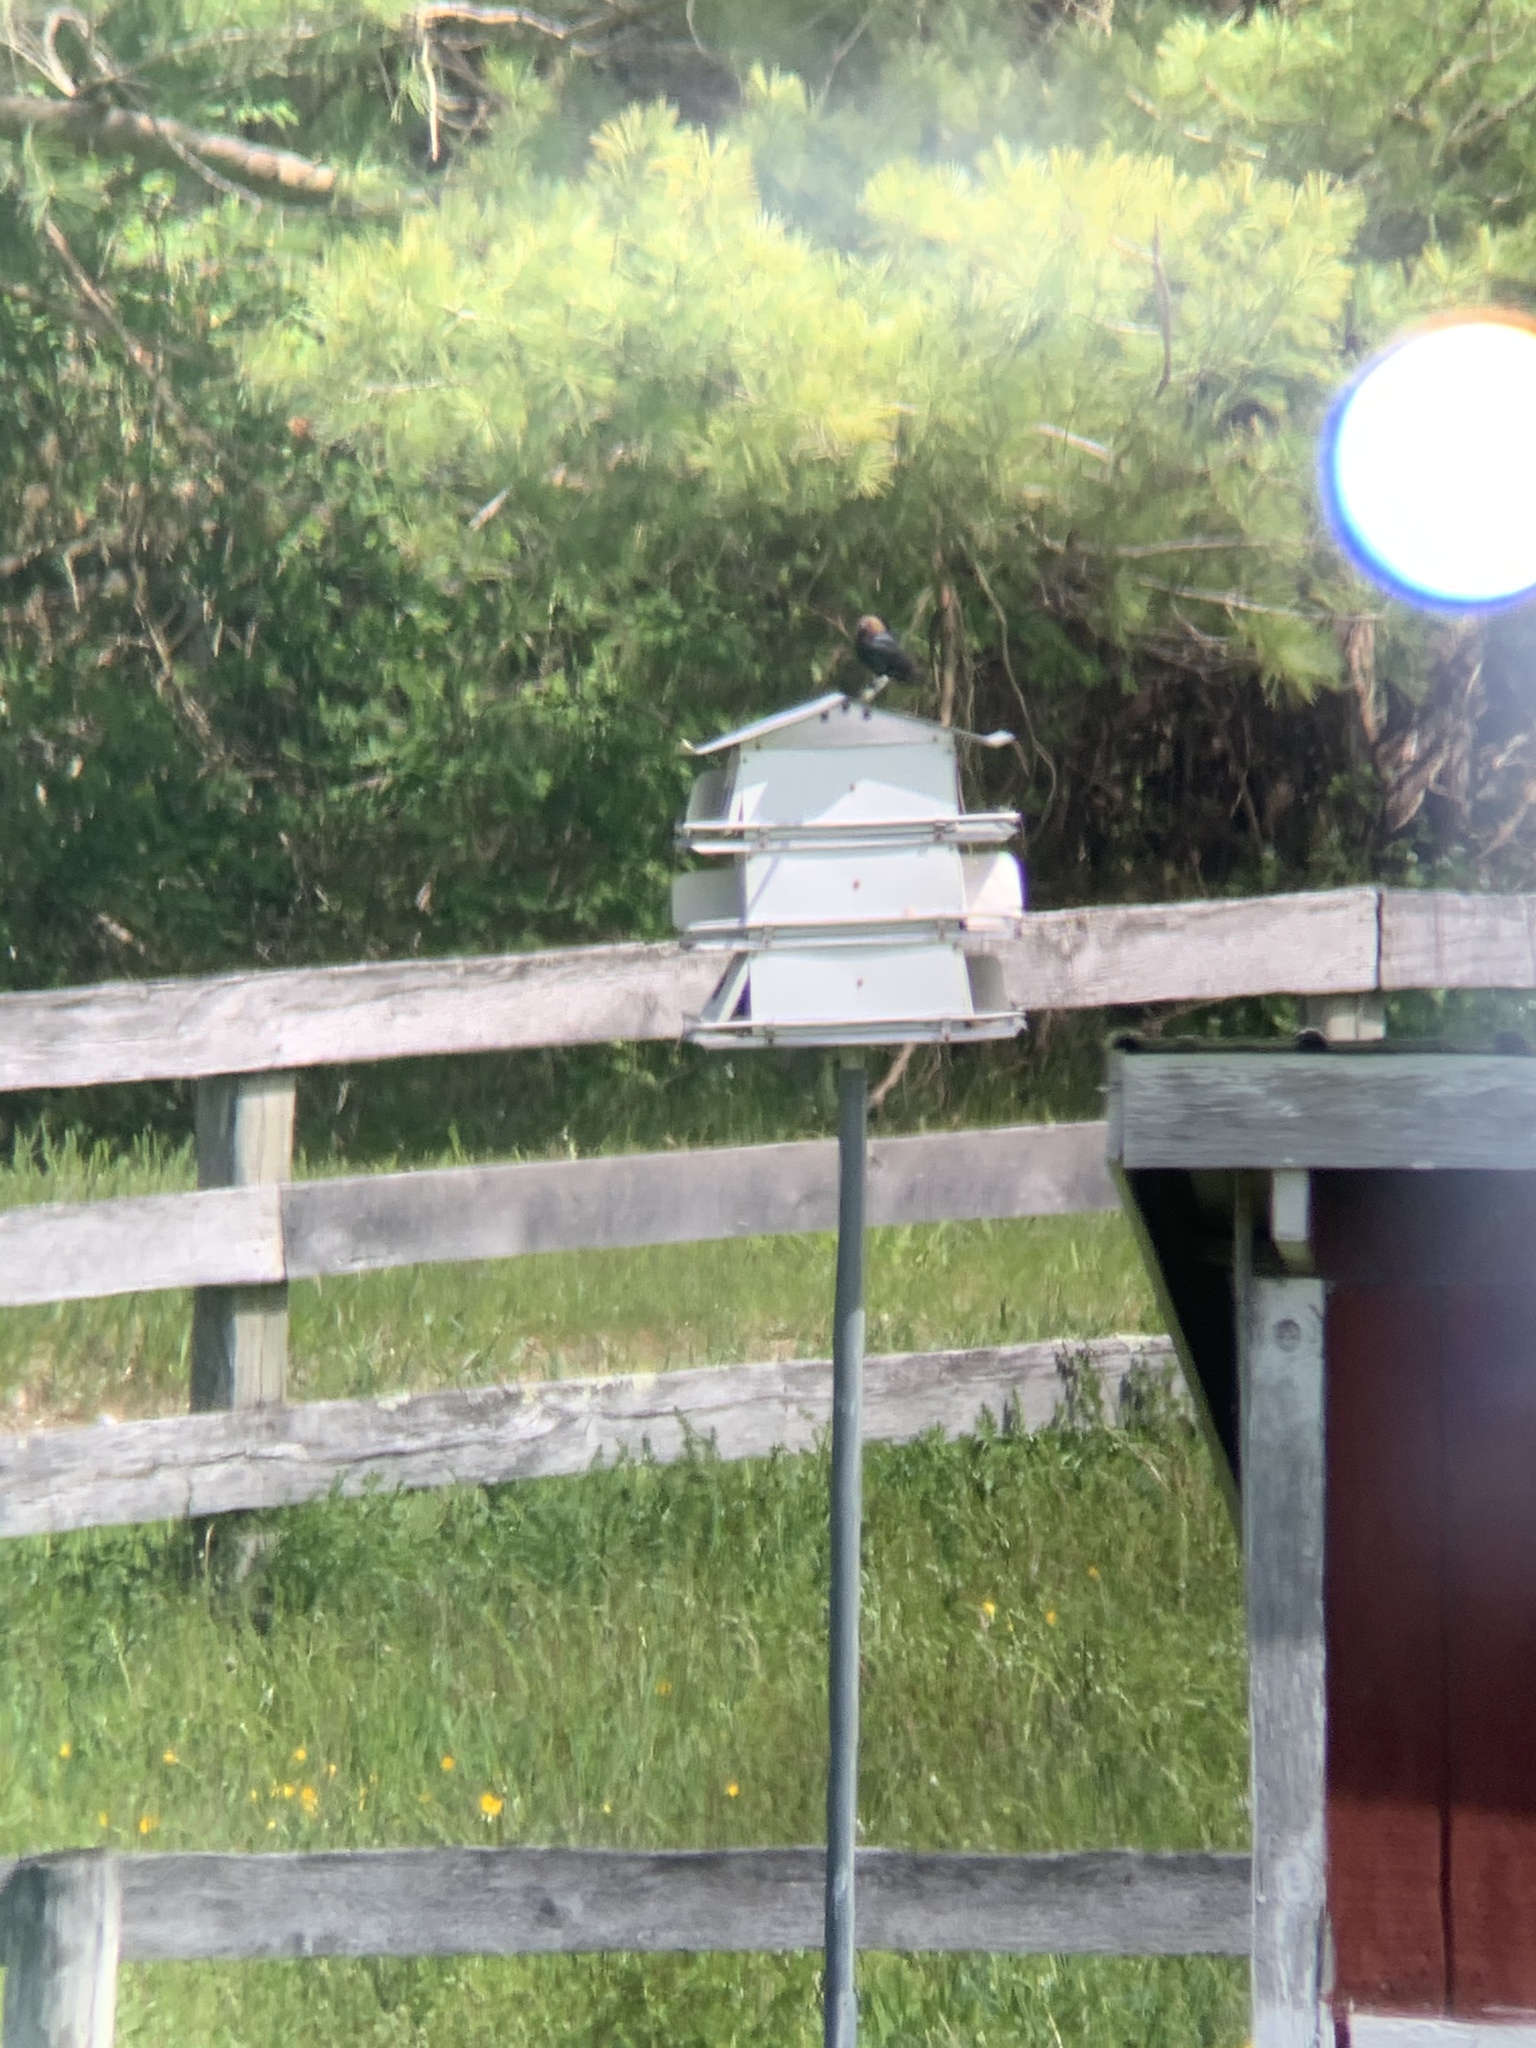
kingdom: Animalia
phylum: Chordata
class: Aves
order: Passeriformes
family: Icteridae
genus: Molothrus
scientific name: Molothrus ater
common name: Brown-headed cowbird
